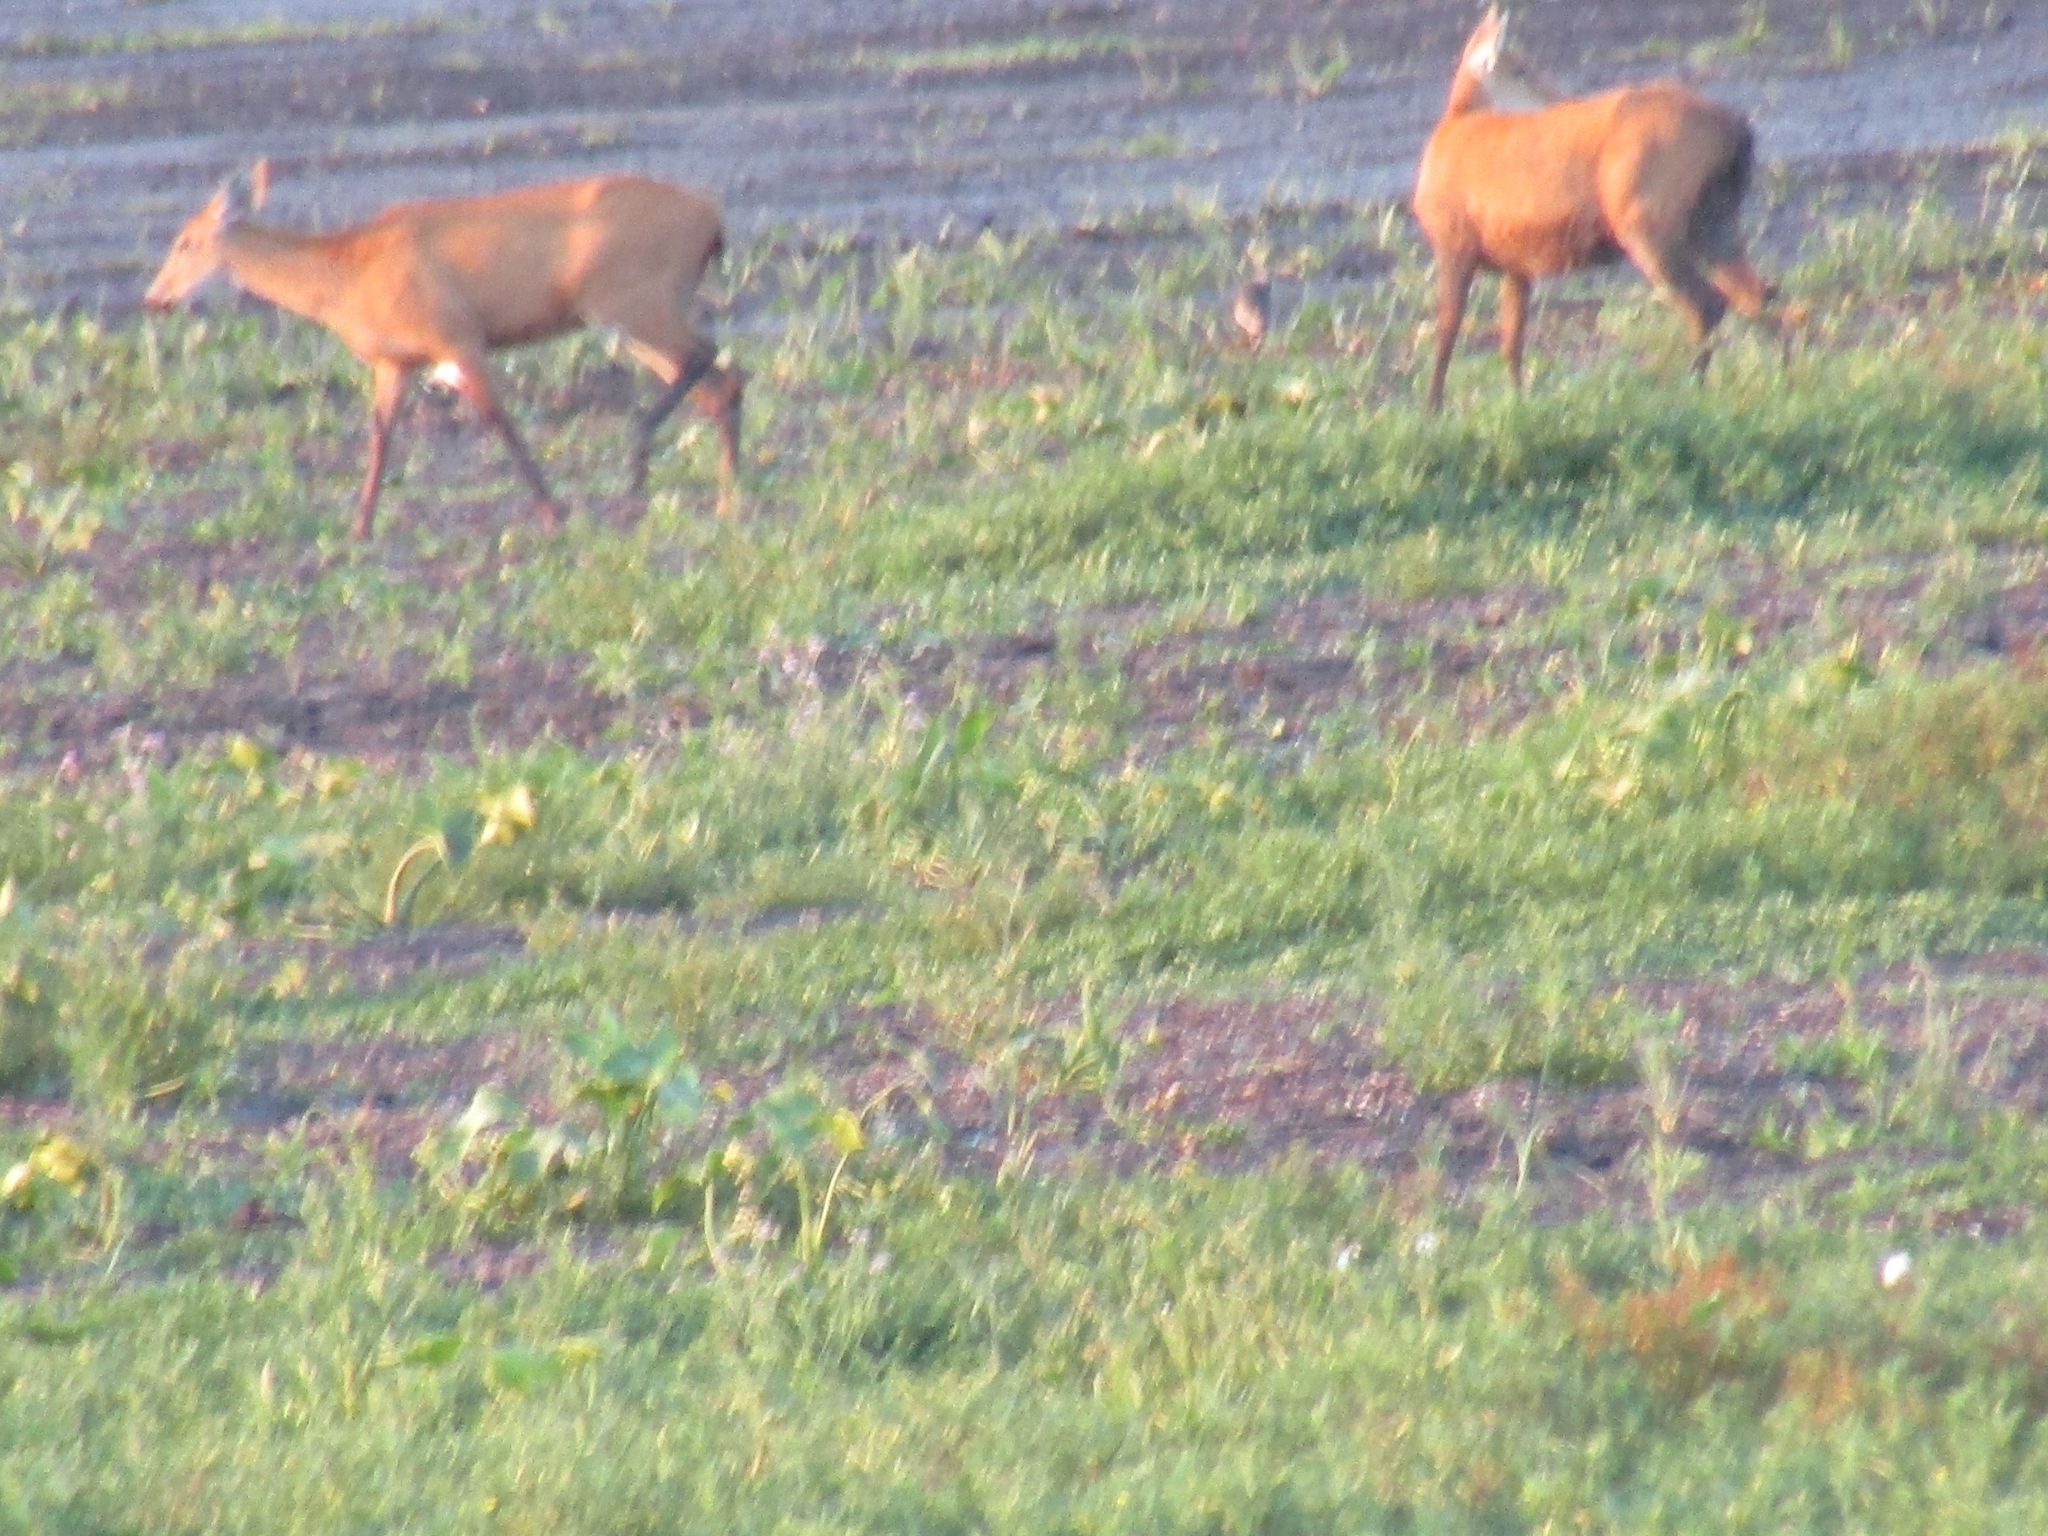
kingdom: Animalia
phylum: Chordata
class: Mammalia
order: Artiodactyla
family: Cervidae
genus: Blastocerus
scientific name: Blastocerus dichotomus
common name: Marsh deer
